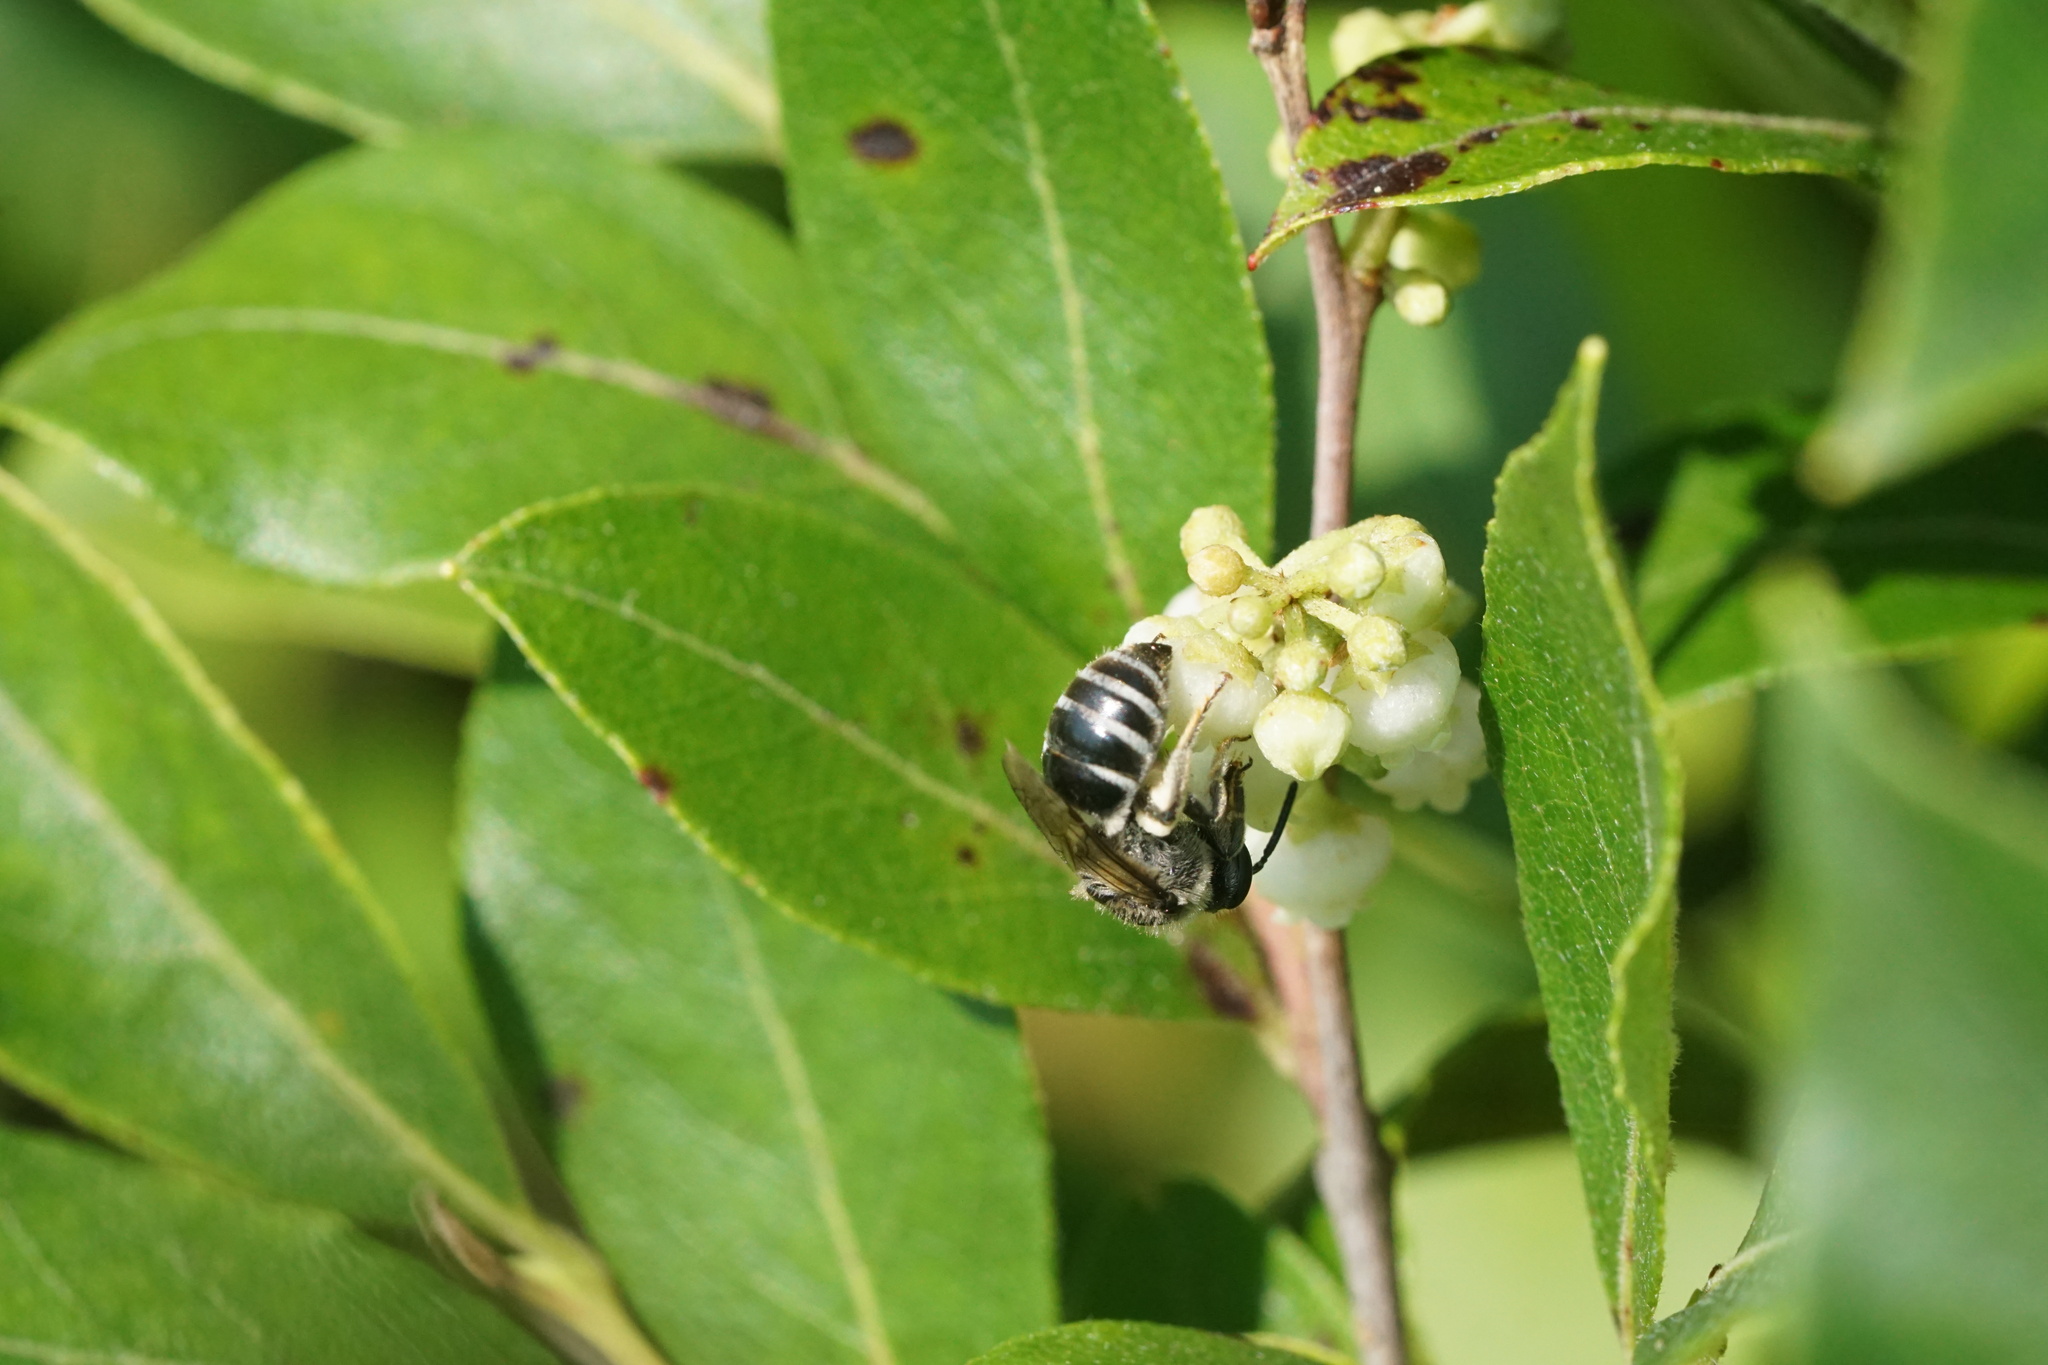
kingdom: Animalia
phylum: Arthropoda
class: Insecta
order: Hymenoptera
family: Colletidae
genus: Colletes
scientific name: Colletes productus
